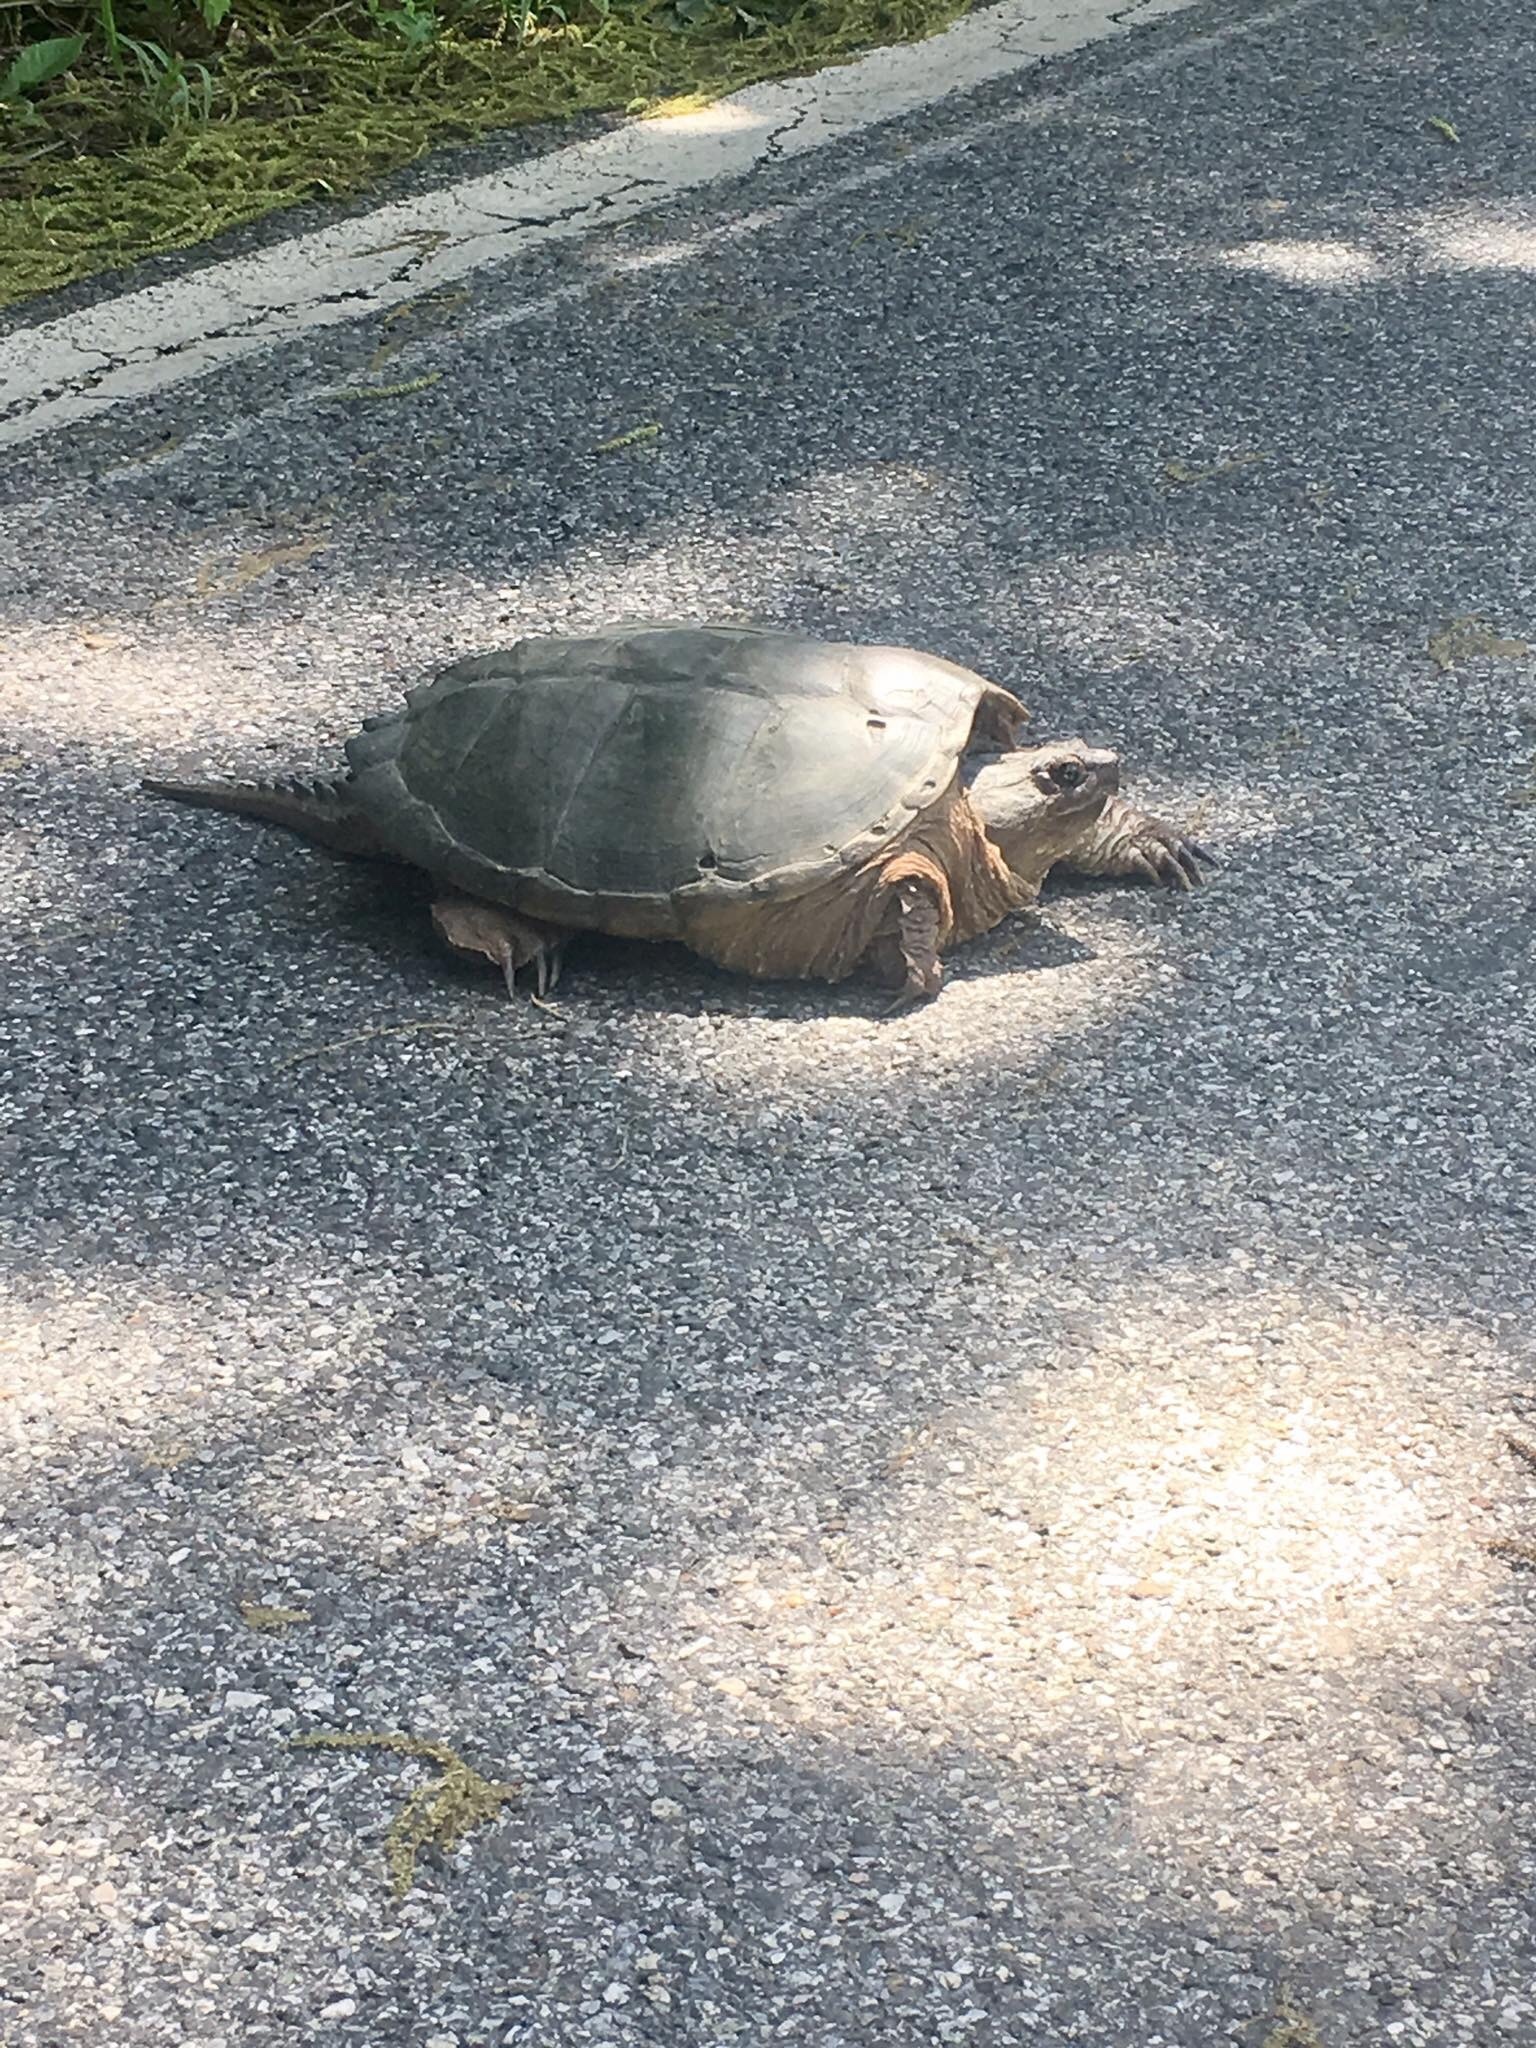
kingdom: Animalia
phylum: Chordata
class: Testudines
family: Chelydridae
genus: Chelydra
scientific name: Chelydra serpentina
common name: Common snapping turtle
